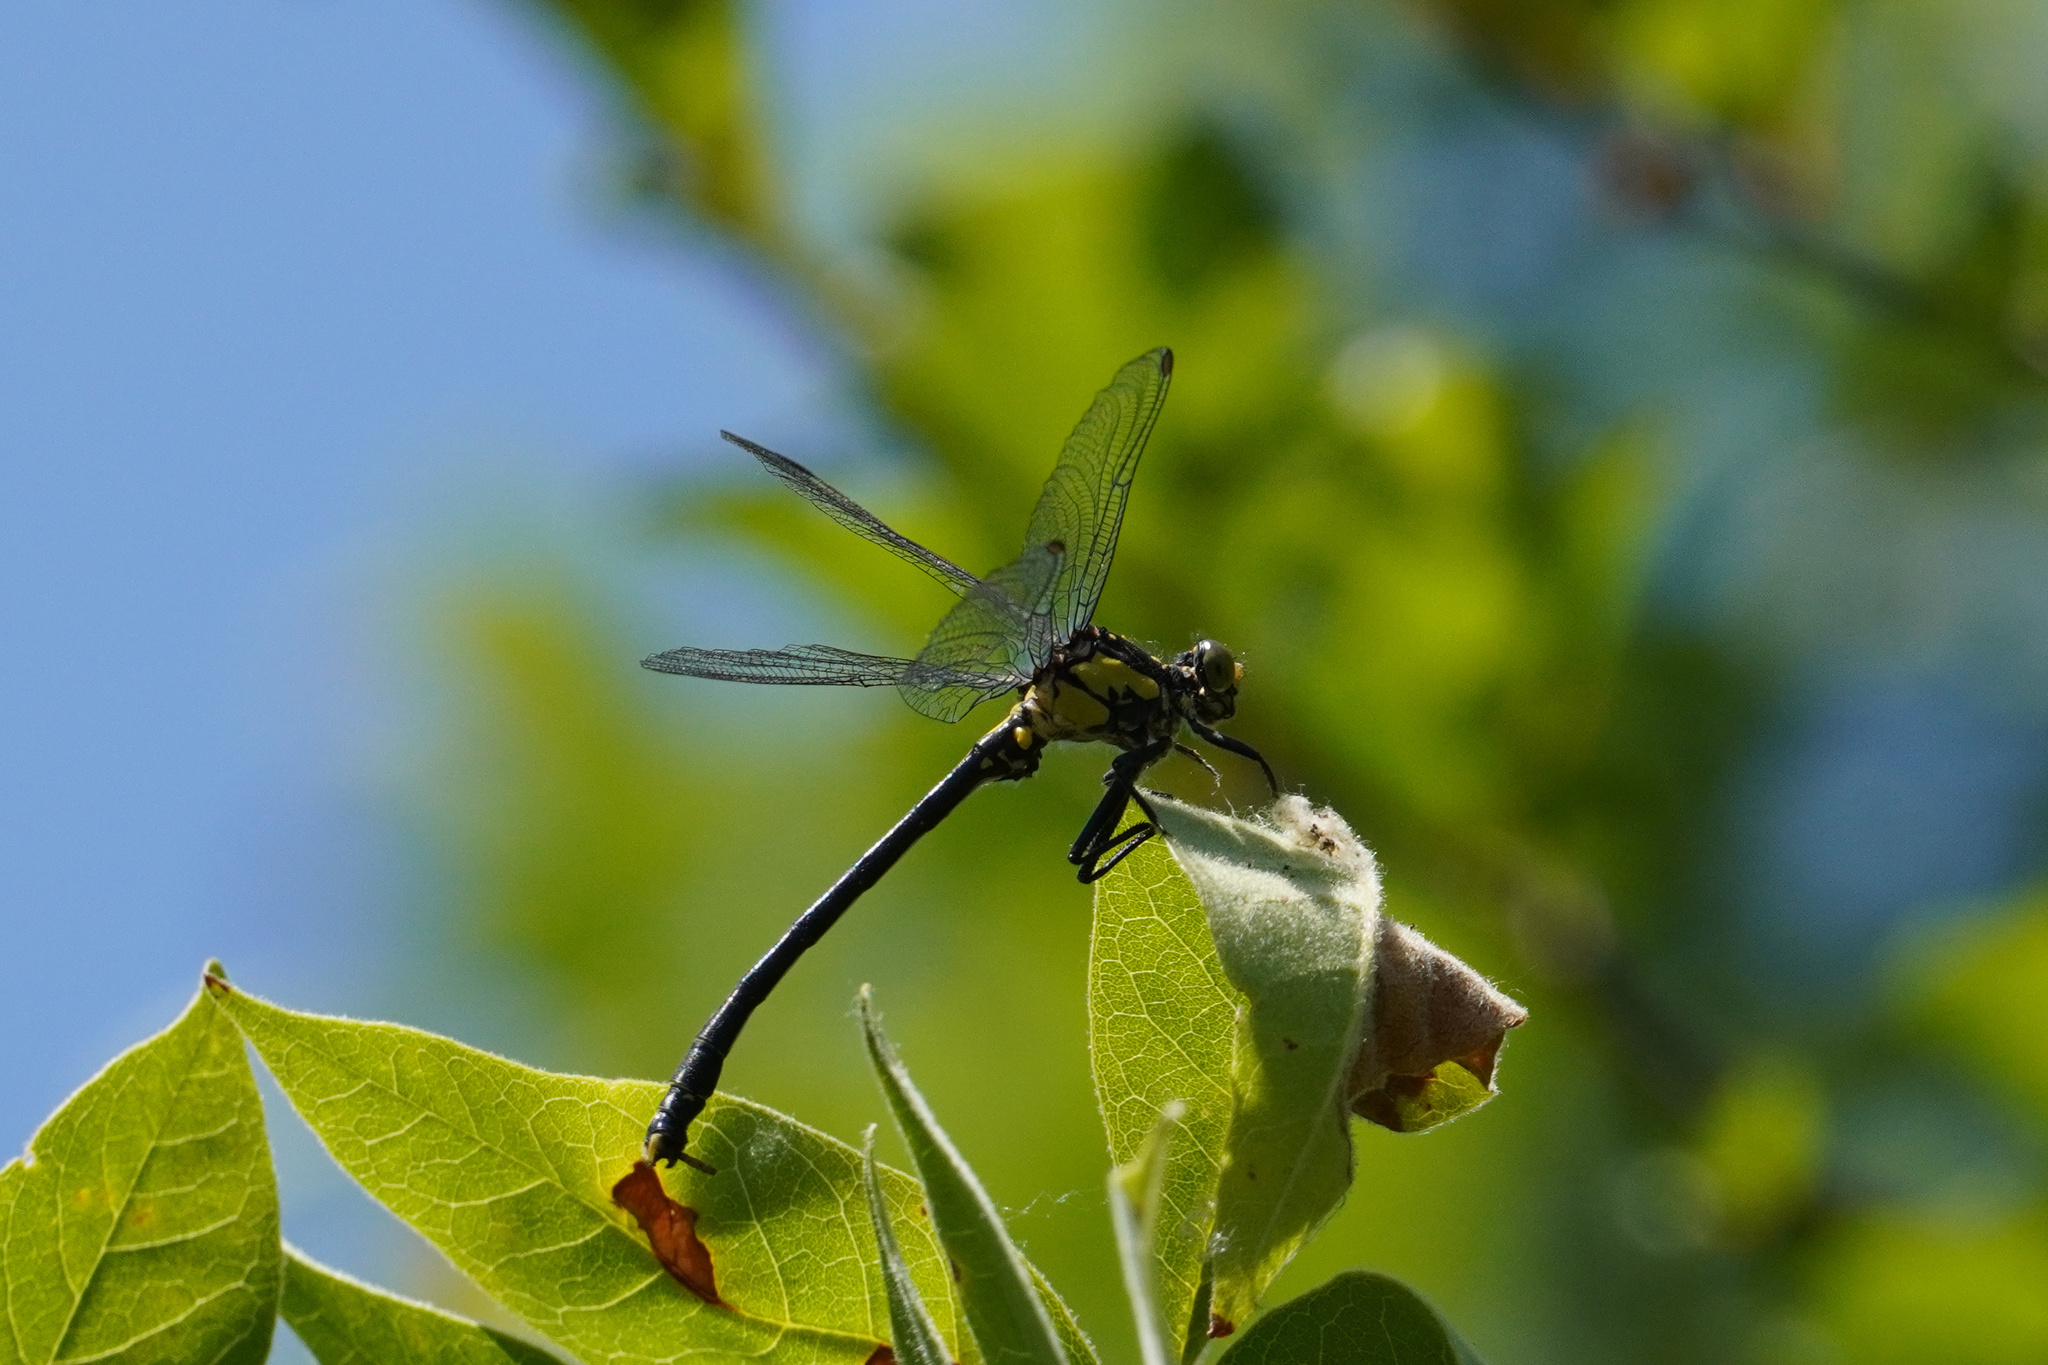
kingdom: Animalia
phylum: Arthropoda
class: Insecta
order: Odonata
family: Gomphidae
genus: Octogomphus
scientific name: Octogomphus specularis
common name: Grappletail
